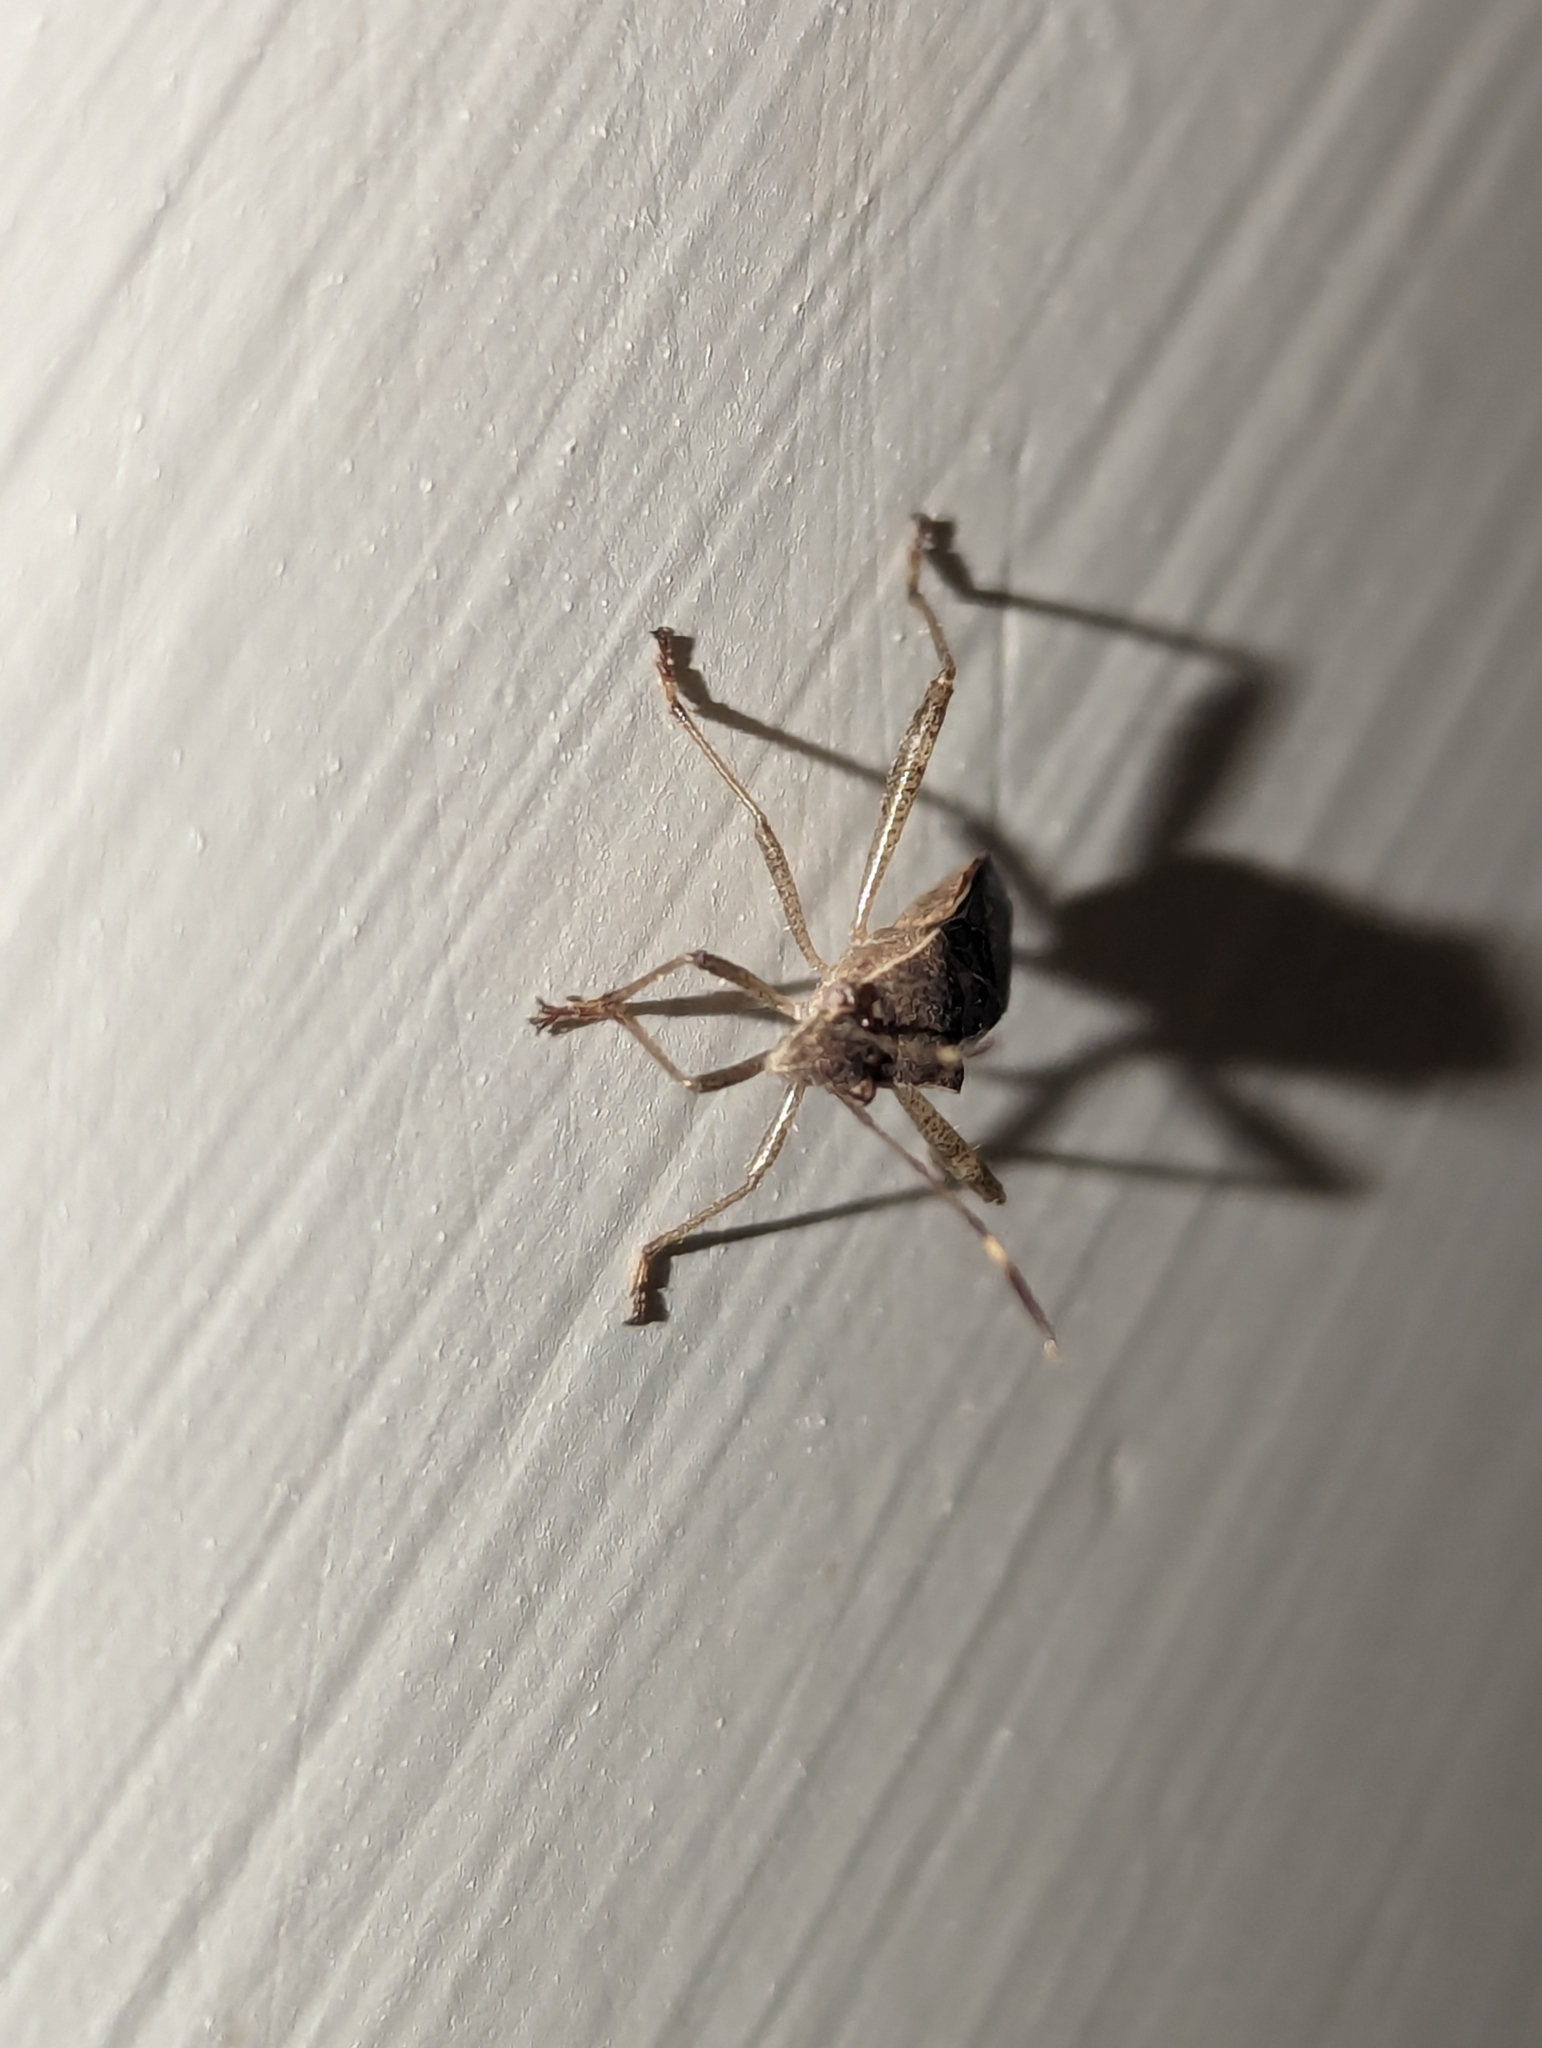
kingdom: Animalia
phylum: Arthropoda
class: Insecta
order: Hemiptera
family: Alydidae
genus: Burtinus
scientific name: Burtinus notatipennis
